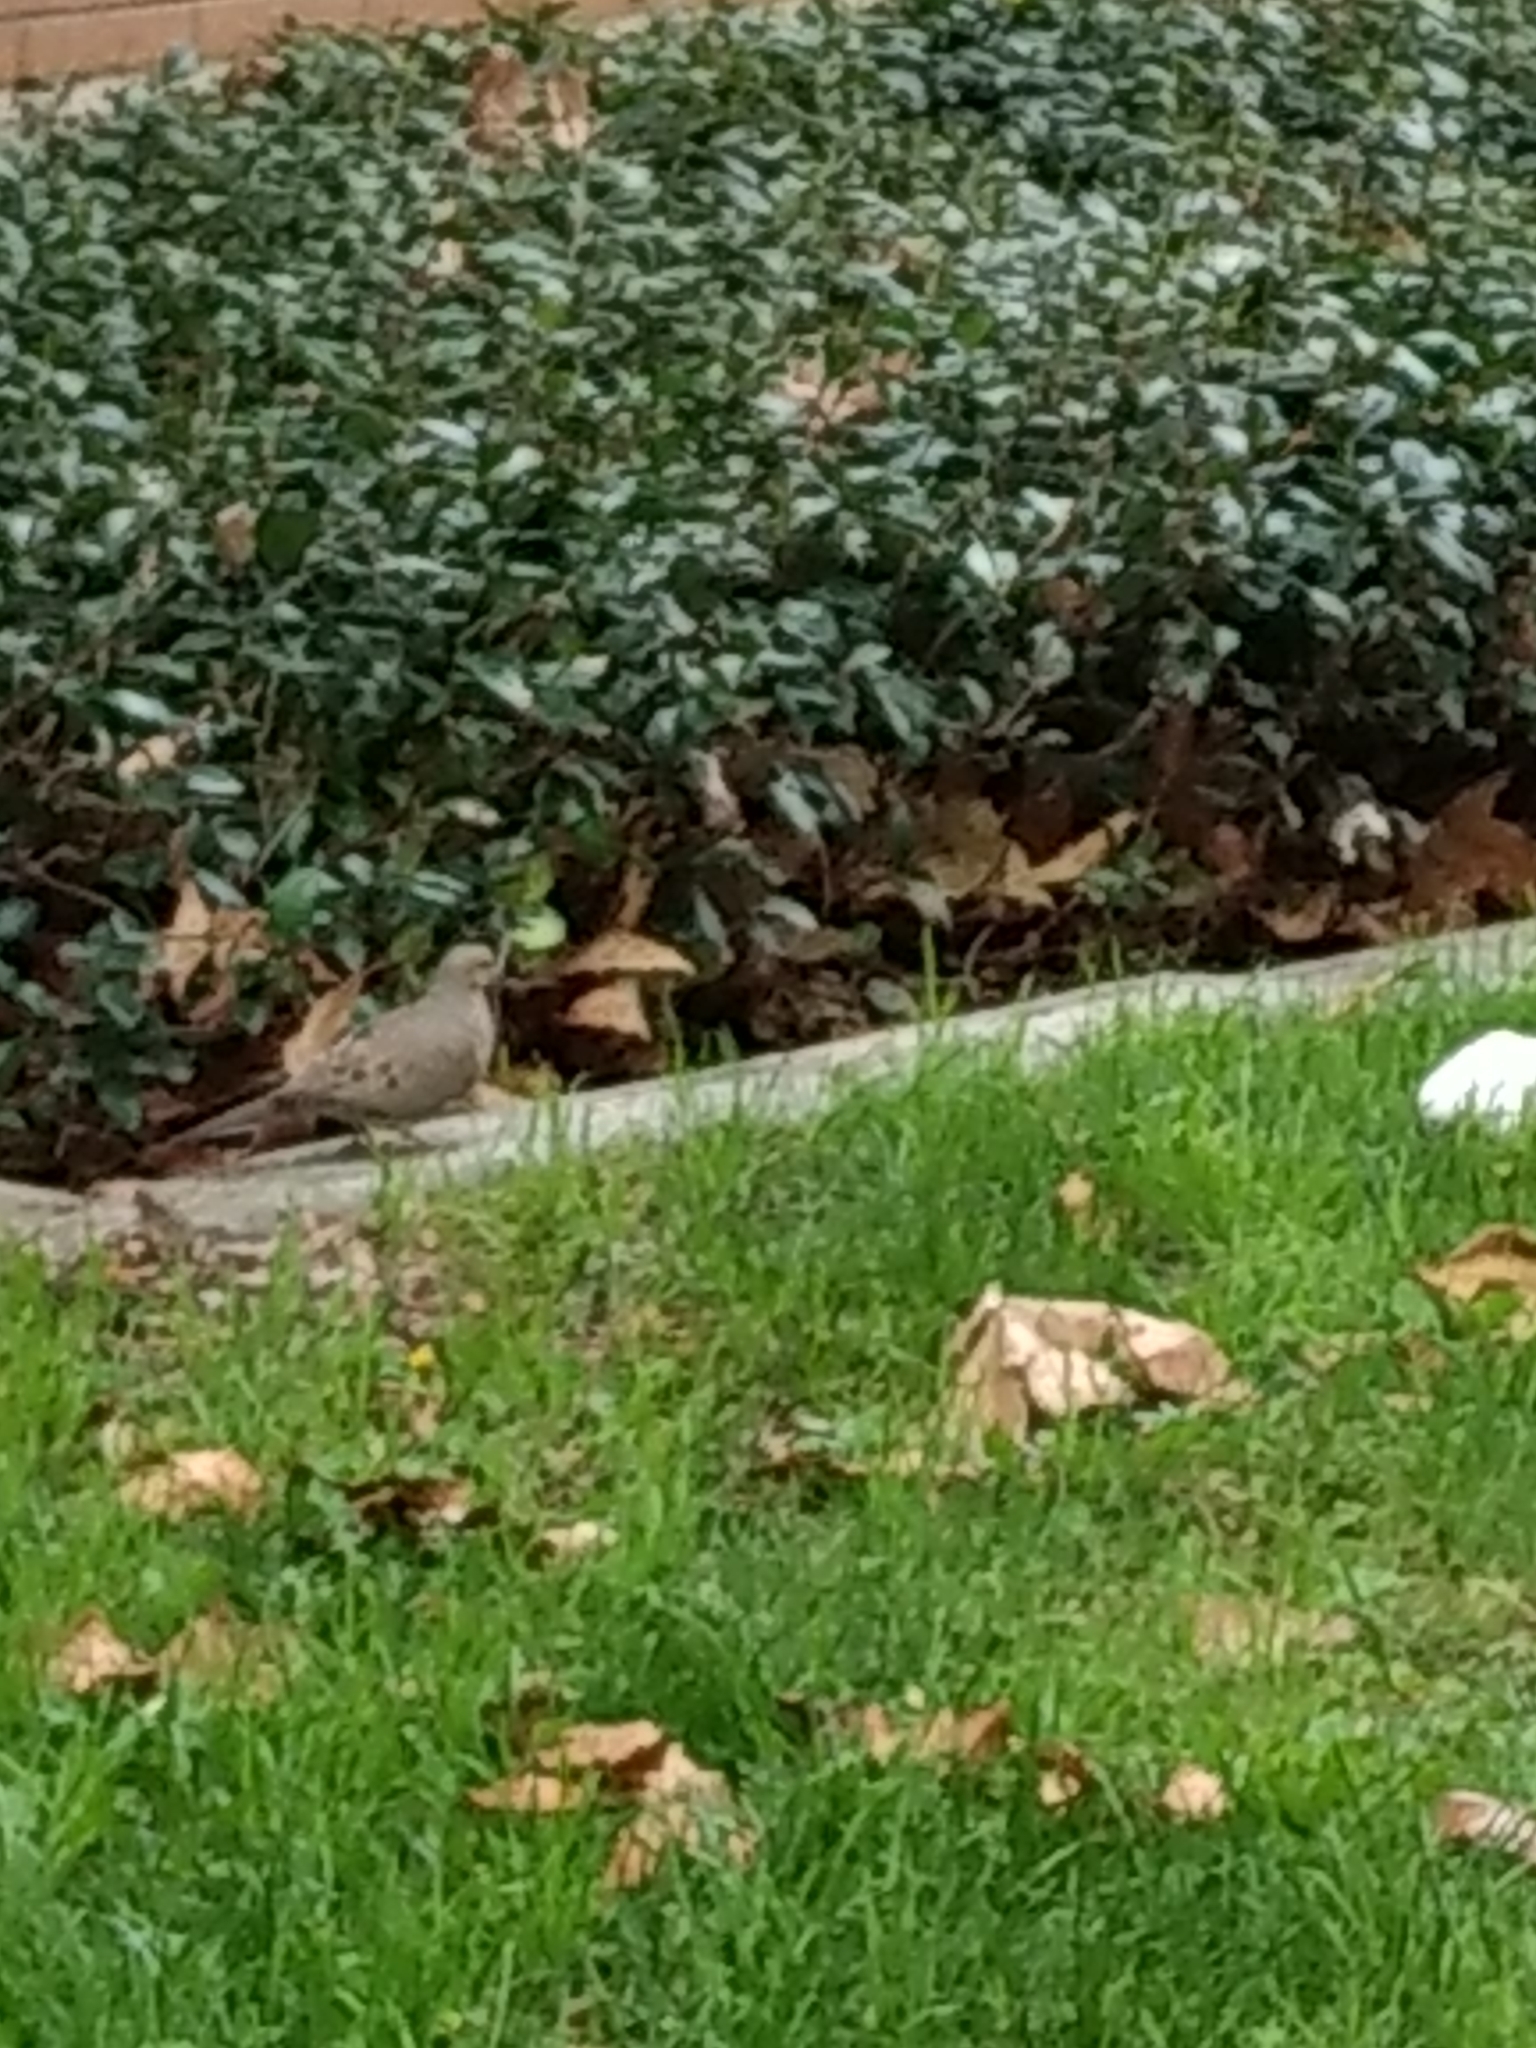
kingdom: Animalia
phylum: Chordata
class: Aves
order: Columbiformes
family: Columbidae
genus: Zenaida
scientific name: Zenaida macroura
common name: Mourning dove
